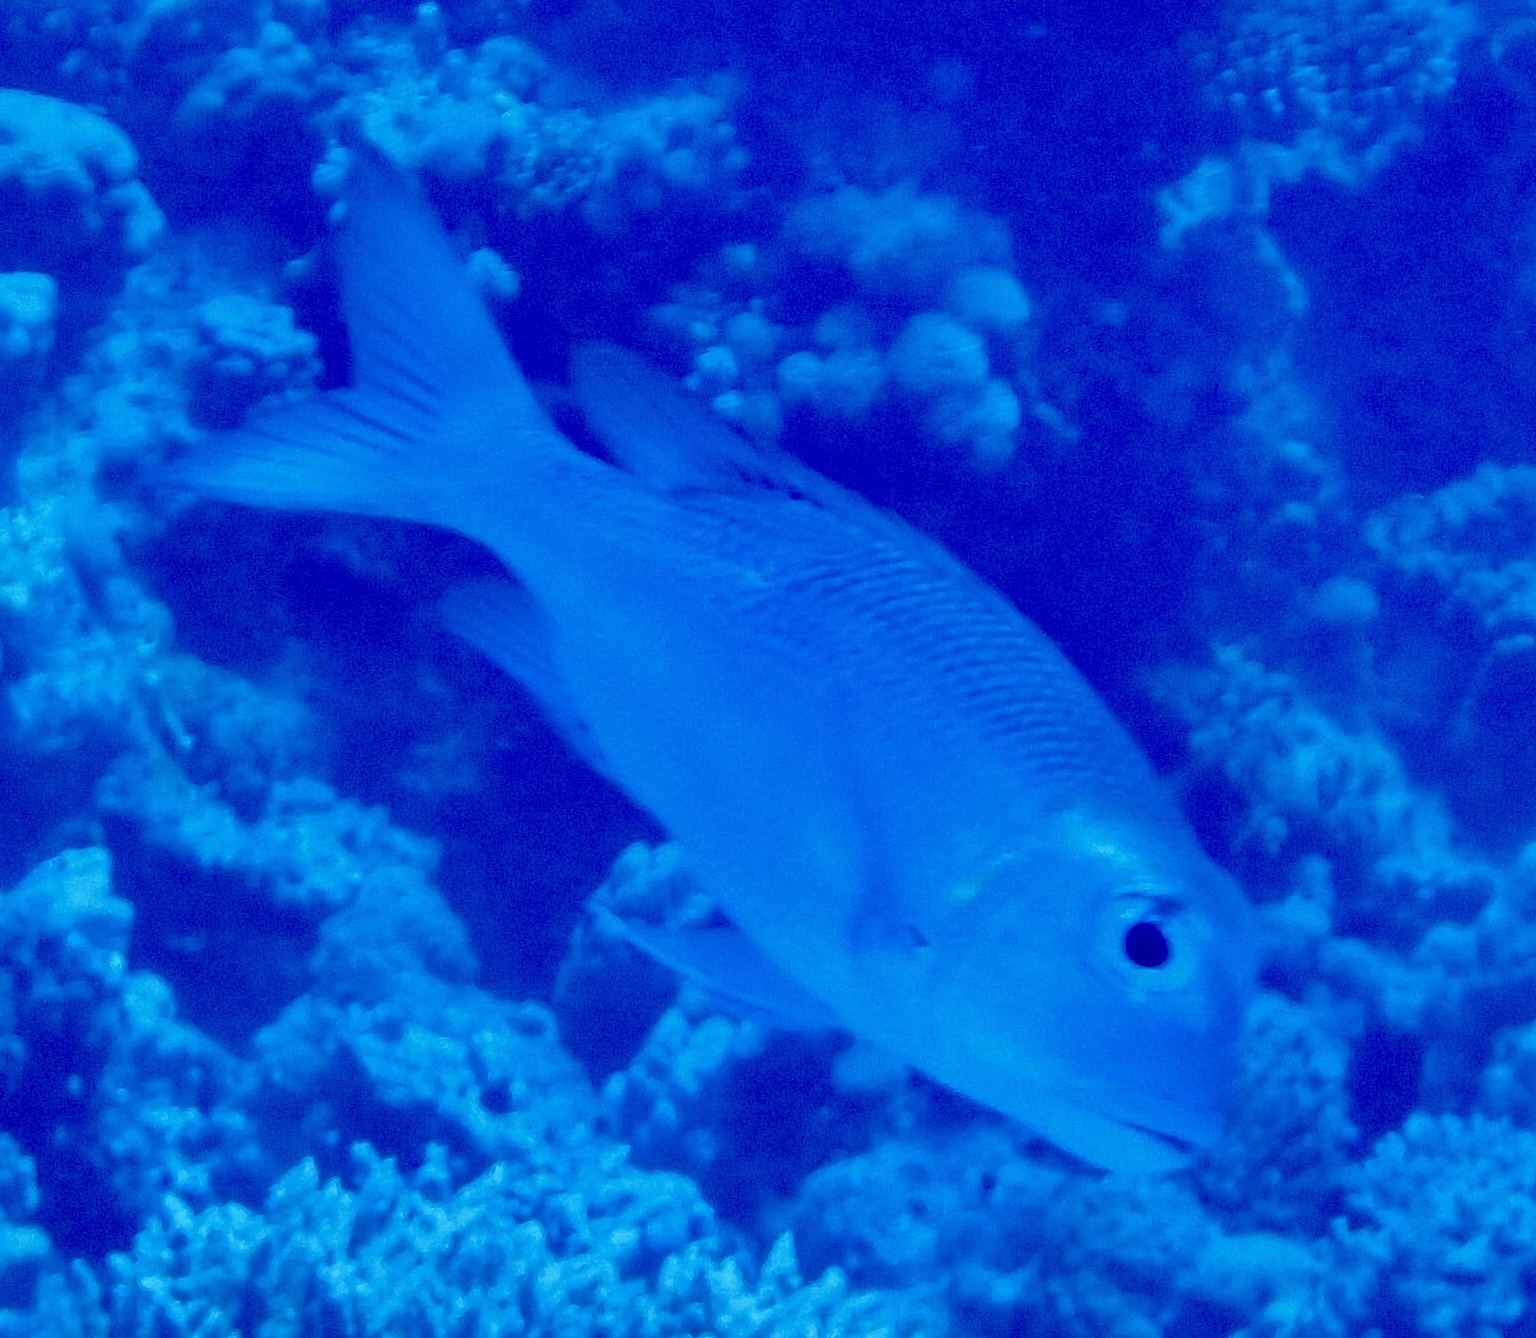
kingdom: Animalia
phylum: Chordata
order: Perciformes
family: Lethrinidae
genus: Monotaxis
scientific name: Monotaxis grandoculis
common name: Bigeye emperor
